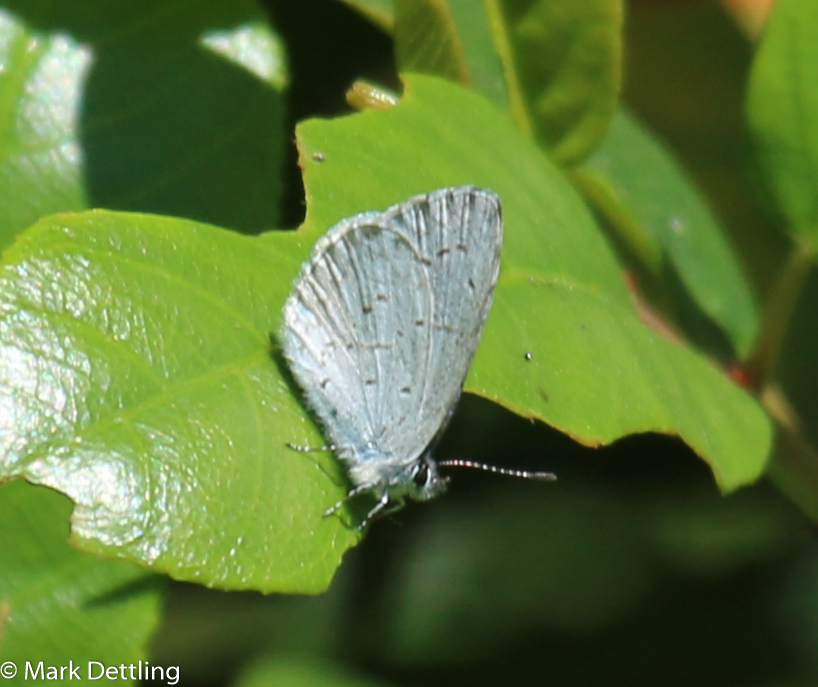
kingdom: Animalia
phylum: Arthropoda
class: Insecta
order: Lepidoptera
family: Lycaenidae
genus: Celastrina
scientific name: Celastrina ladon
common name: Spring azure
